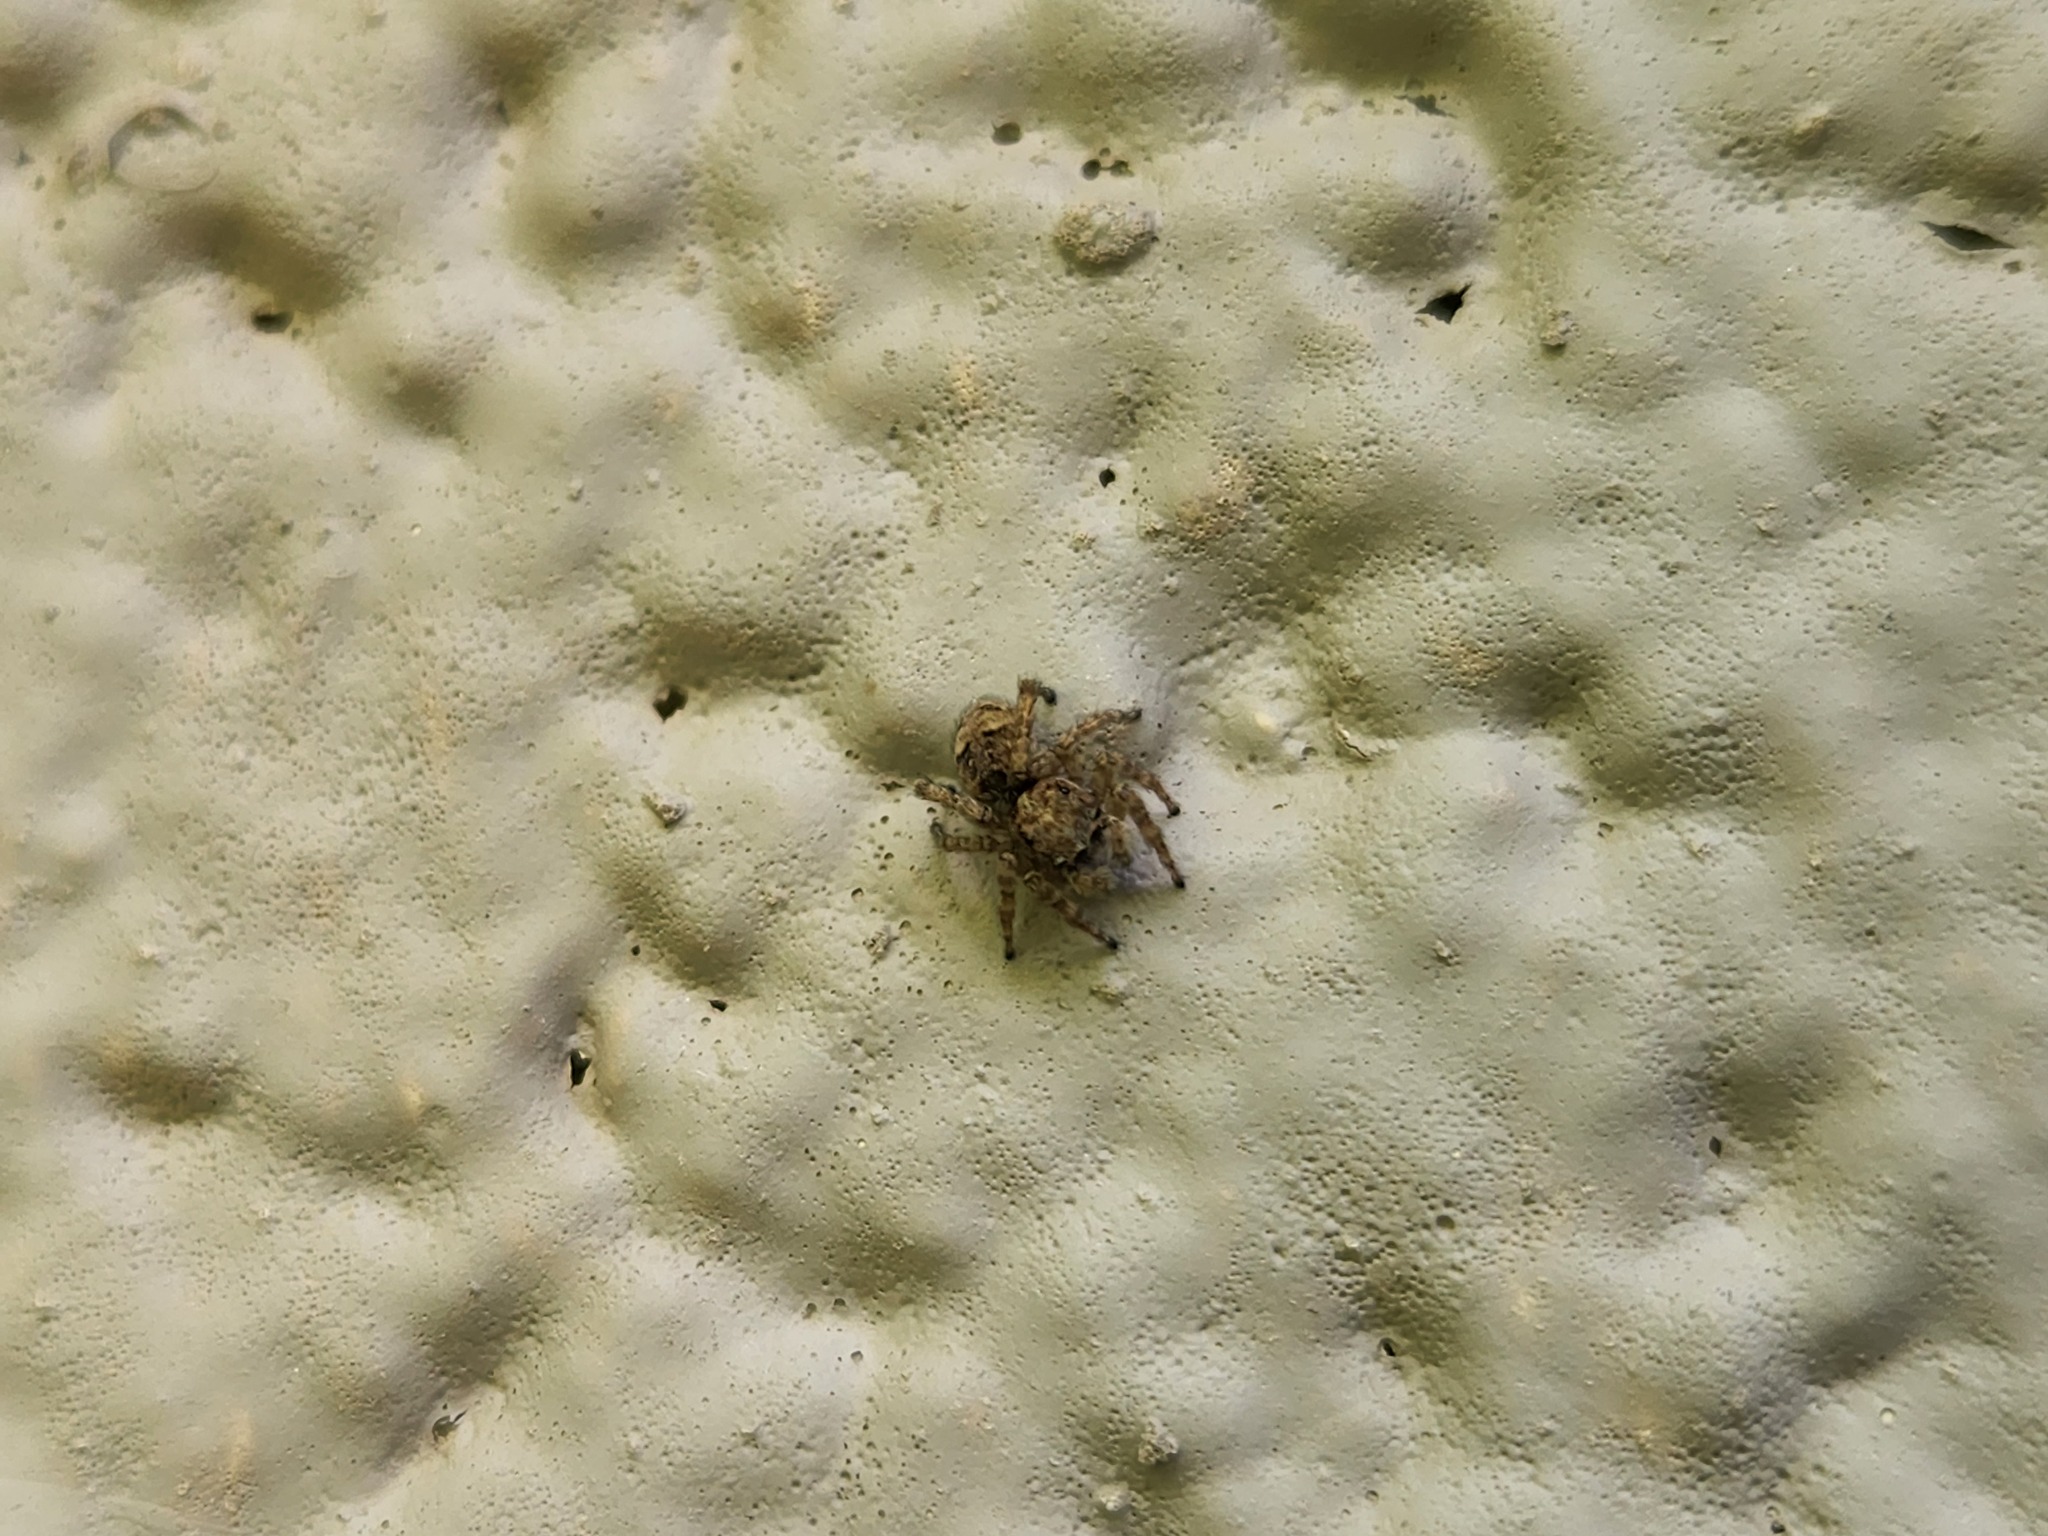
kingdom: Animalia
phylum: Arthropoda
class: Arachnida
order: Araneae
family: Salticidae
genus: Naphrys
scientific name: Naphrys pulex
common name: Flea jumping spider
